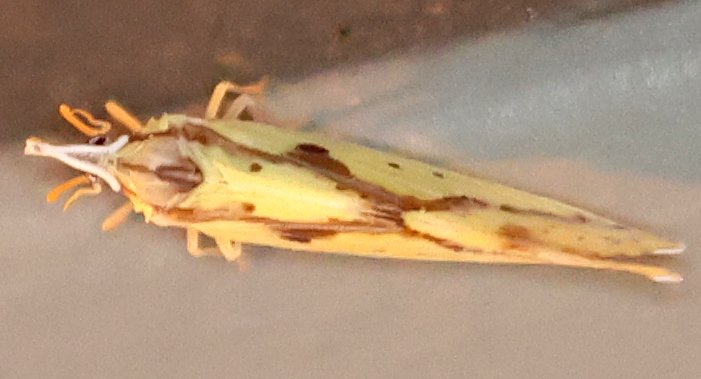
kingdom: Animalia
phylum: Arthropoda
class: Insecta
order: Hemiptera
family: Derbidae
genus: Otiocerus
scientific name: Otiocerus wolfii
